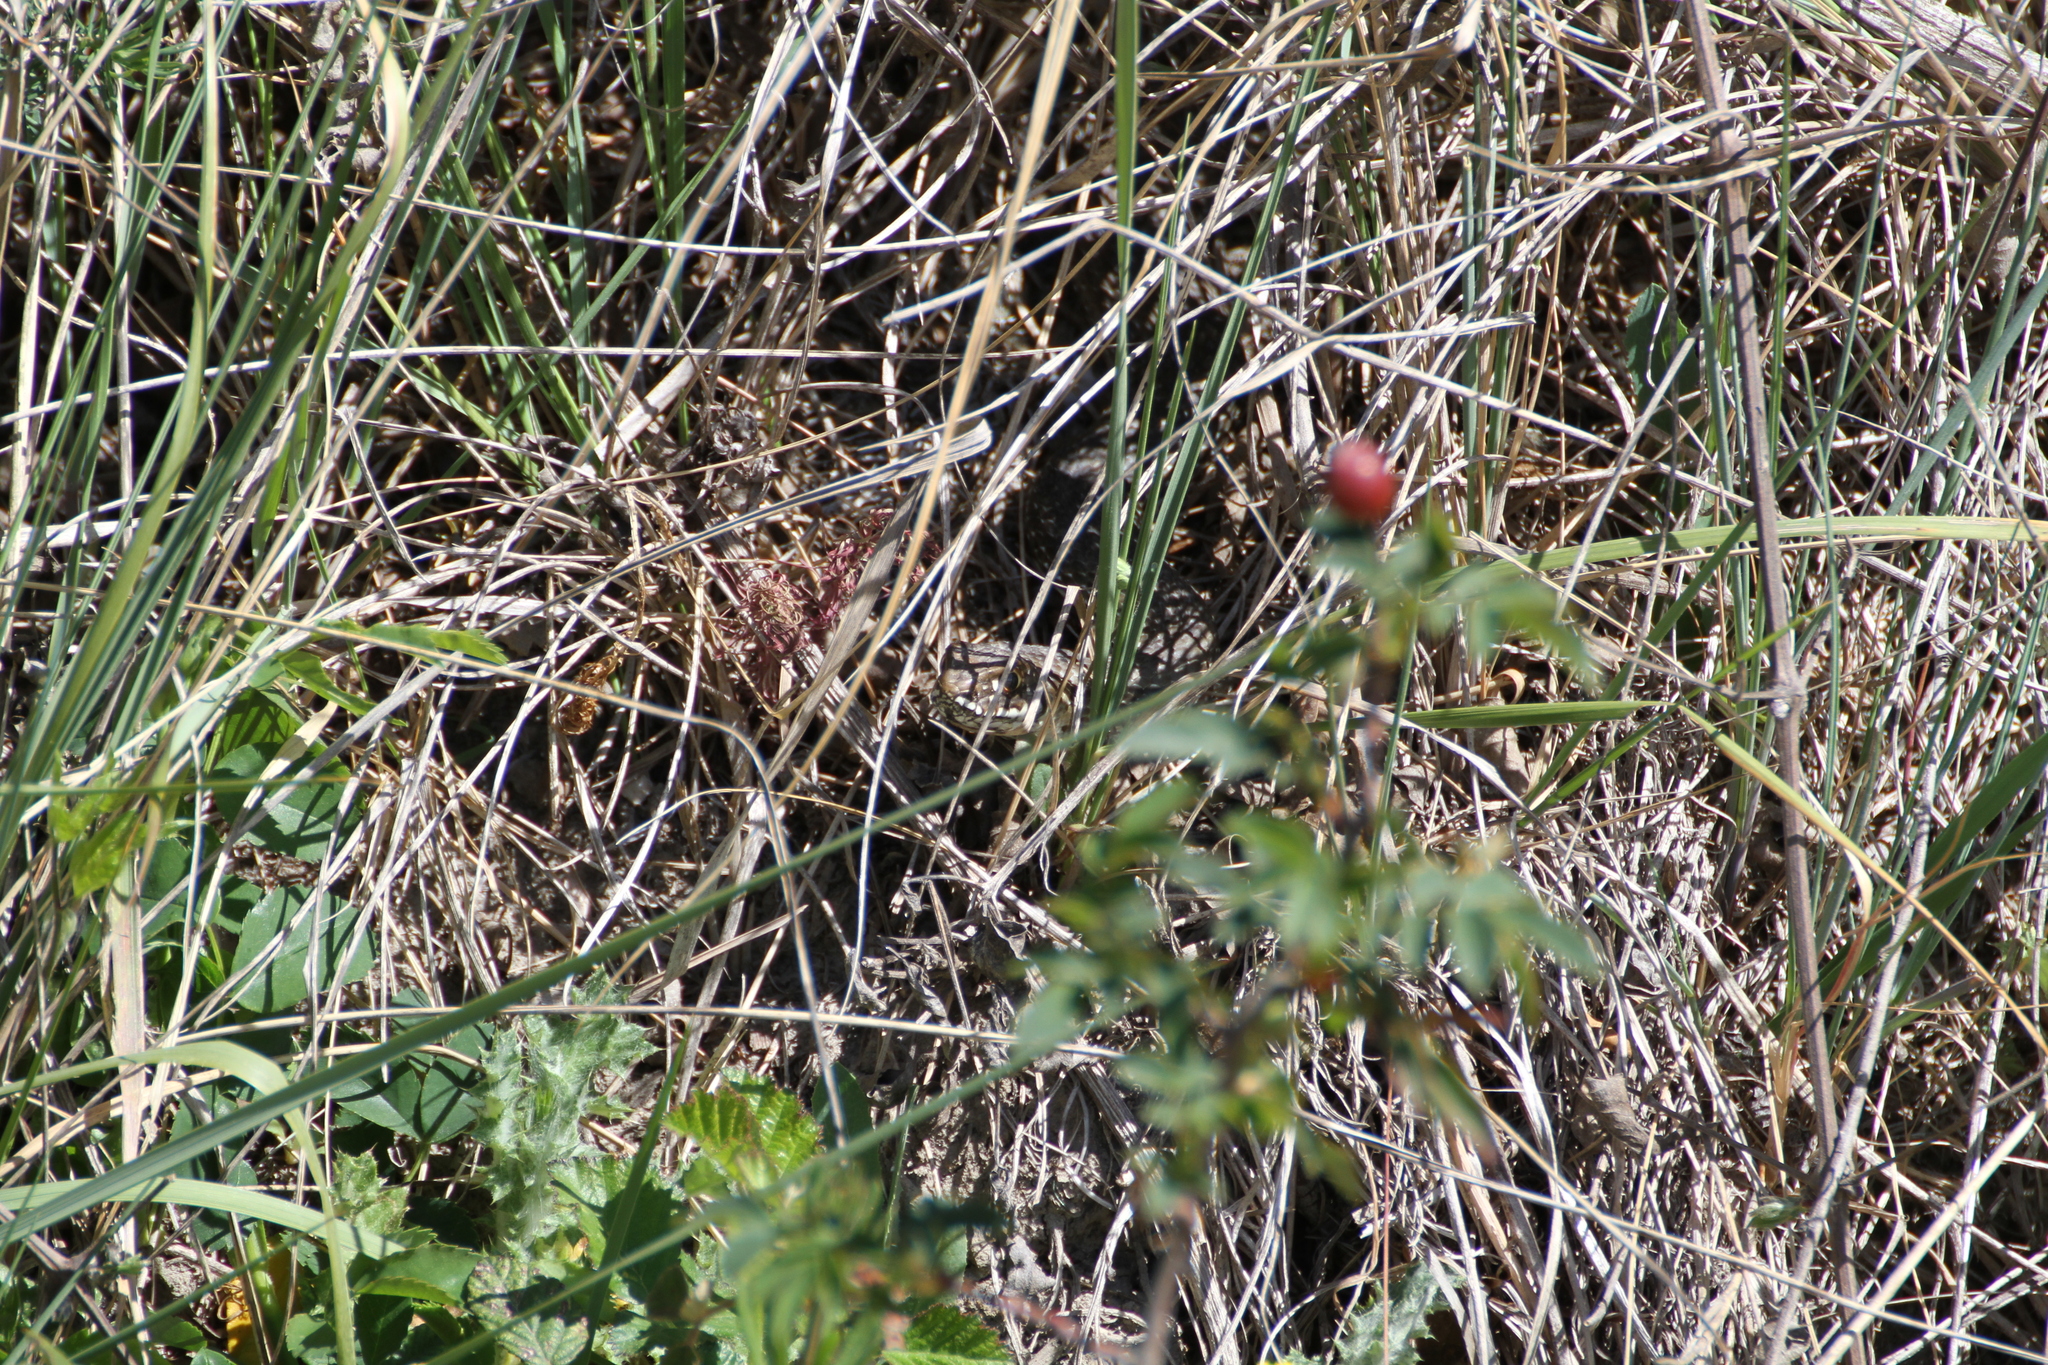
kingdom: Animalia
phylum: Chordata
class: Squamata
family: Psammophiidae
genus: Malpolon
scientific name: Malpolon monspessulanus
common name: Montpellier snake
